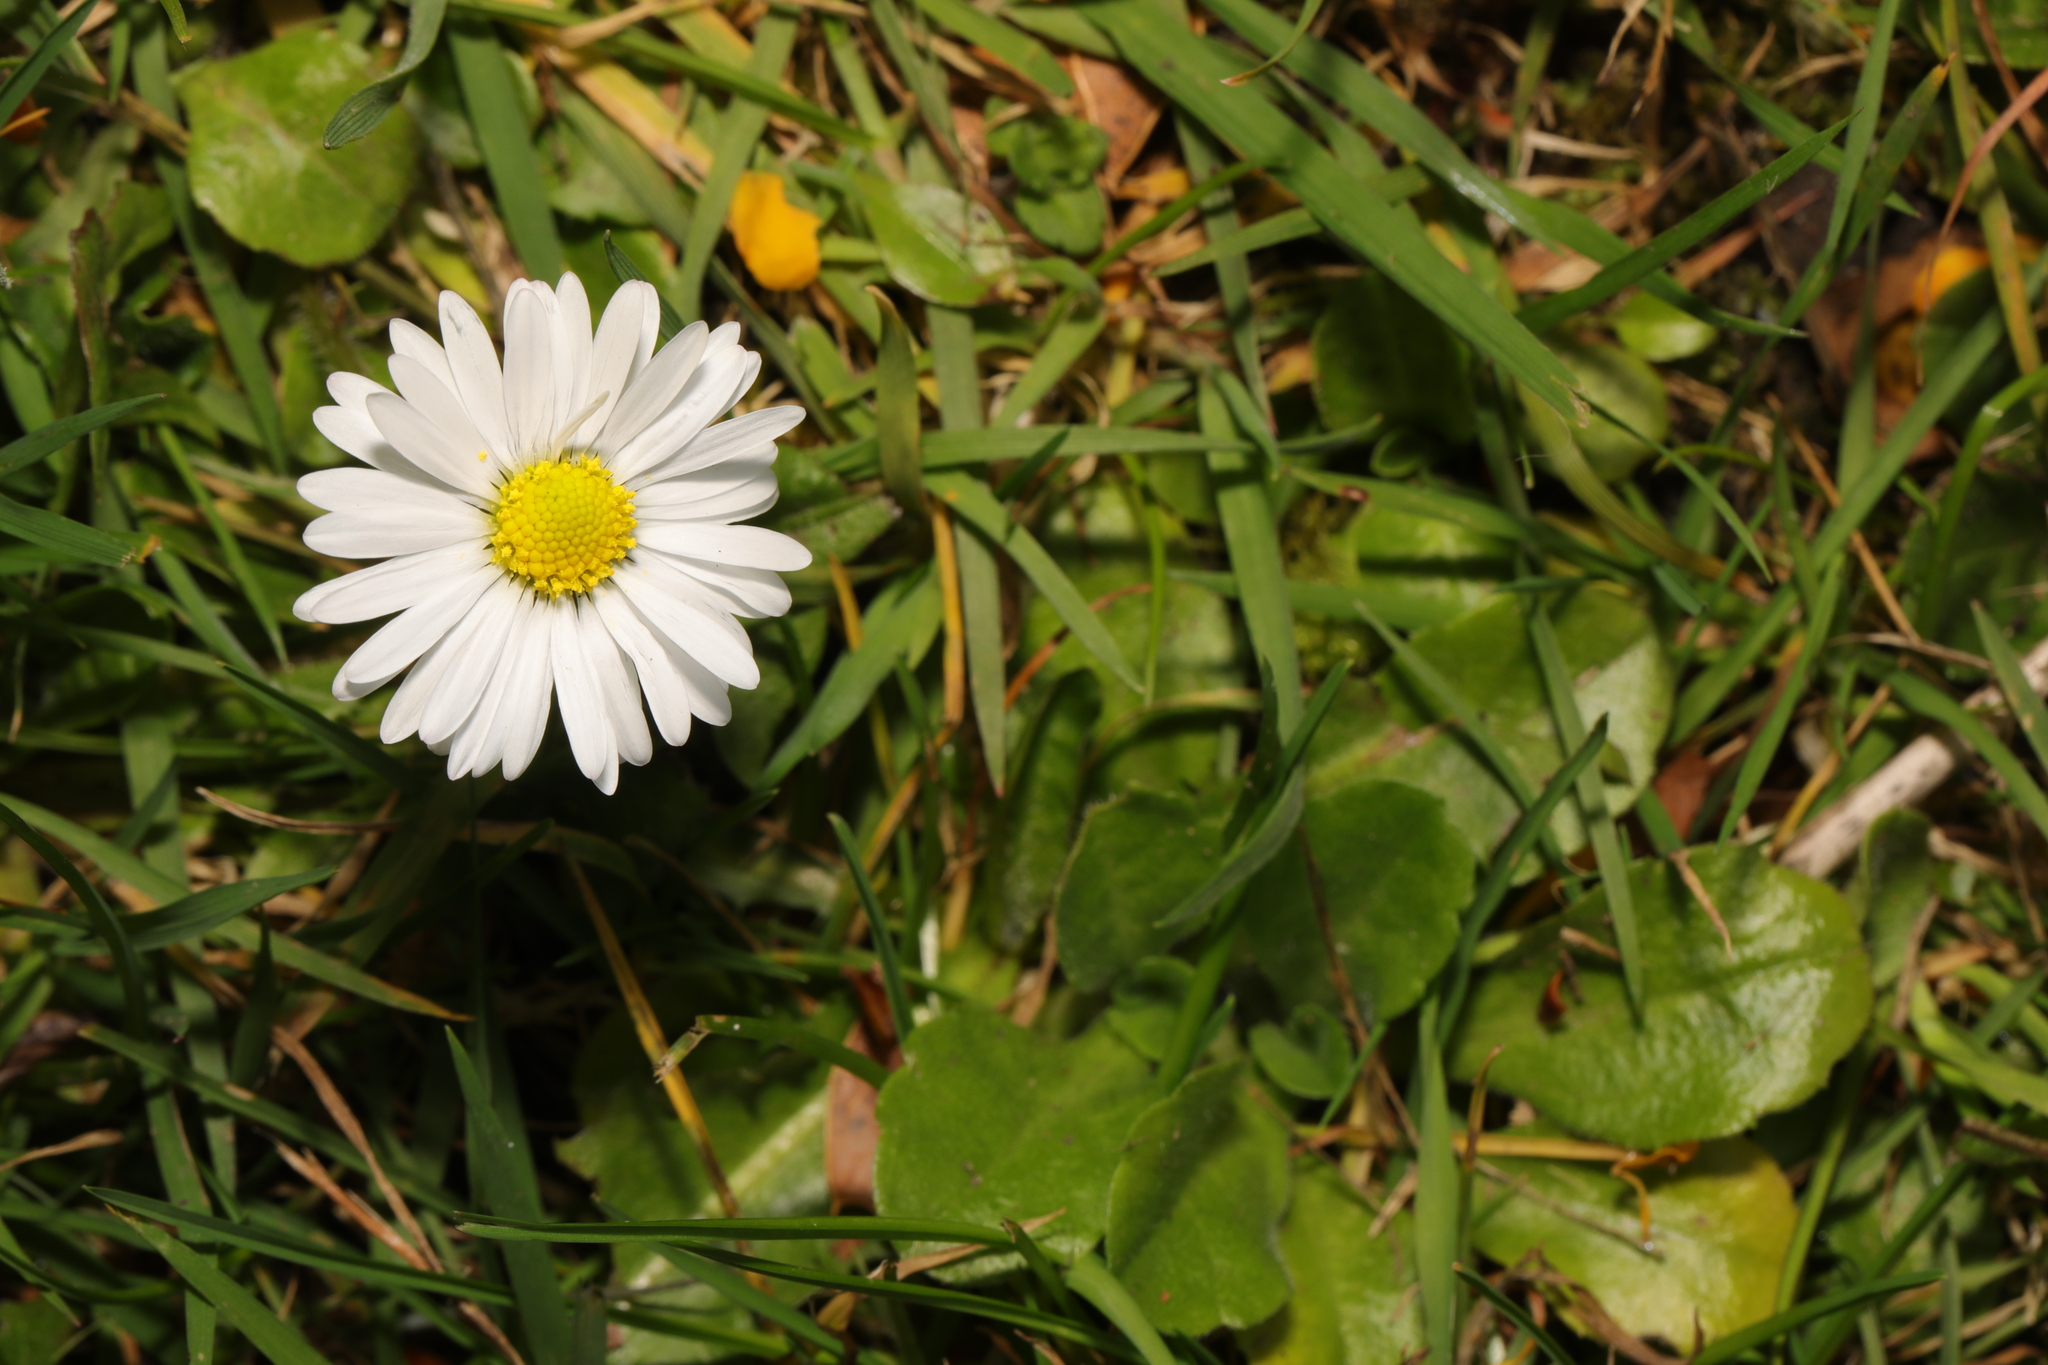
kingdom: Plantae
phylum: Tracheophyta
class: Magnoliopsida
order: Asterales
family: Asteraceae
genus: Bellis
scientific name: Bellis perennis
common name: Lawndaisy
